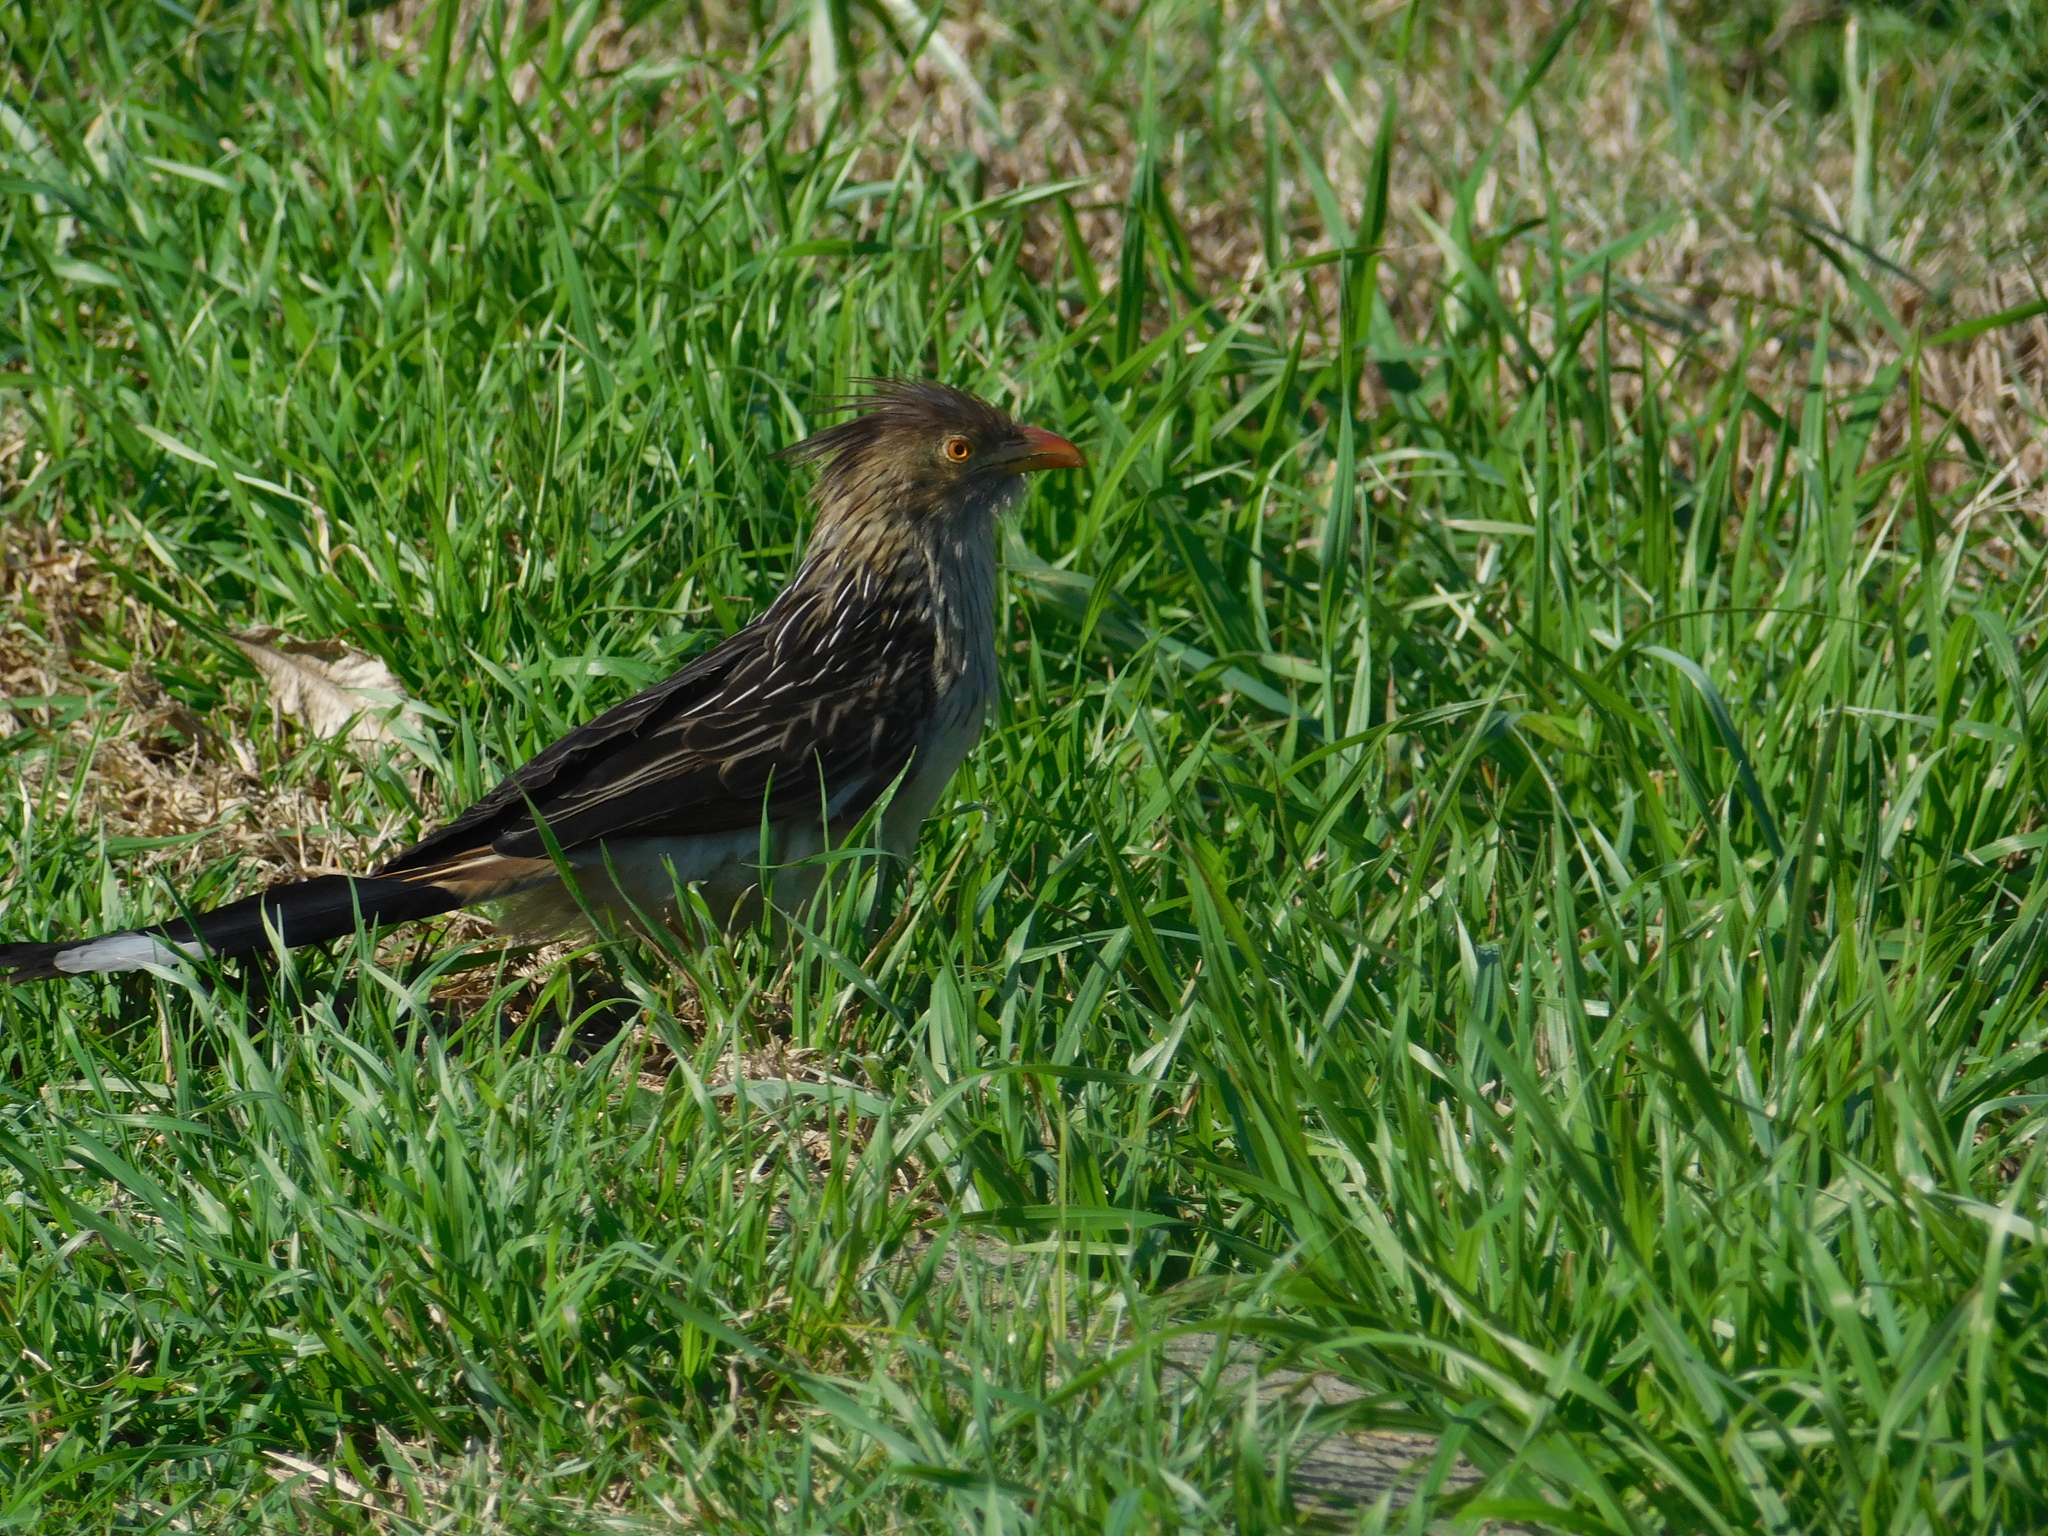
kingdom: Animalia
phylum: Chordata
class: Aves
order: Cuculiformes
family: Cuculidae
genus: Guira
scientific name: Guira guira
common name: Guira cuckoo
